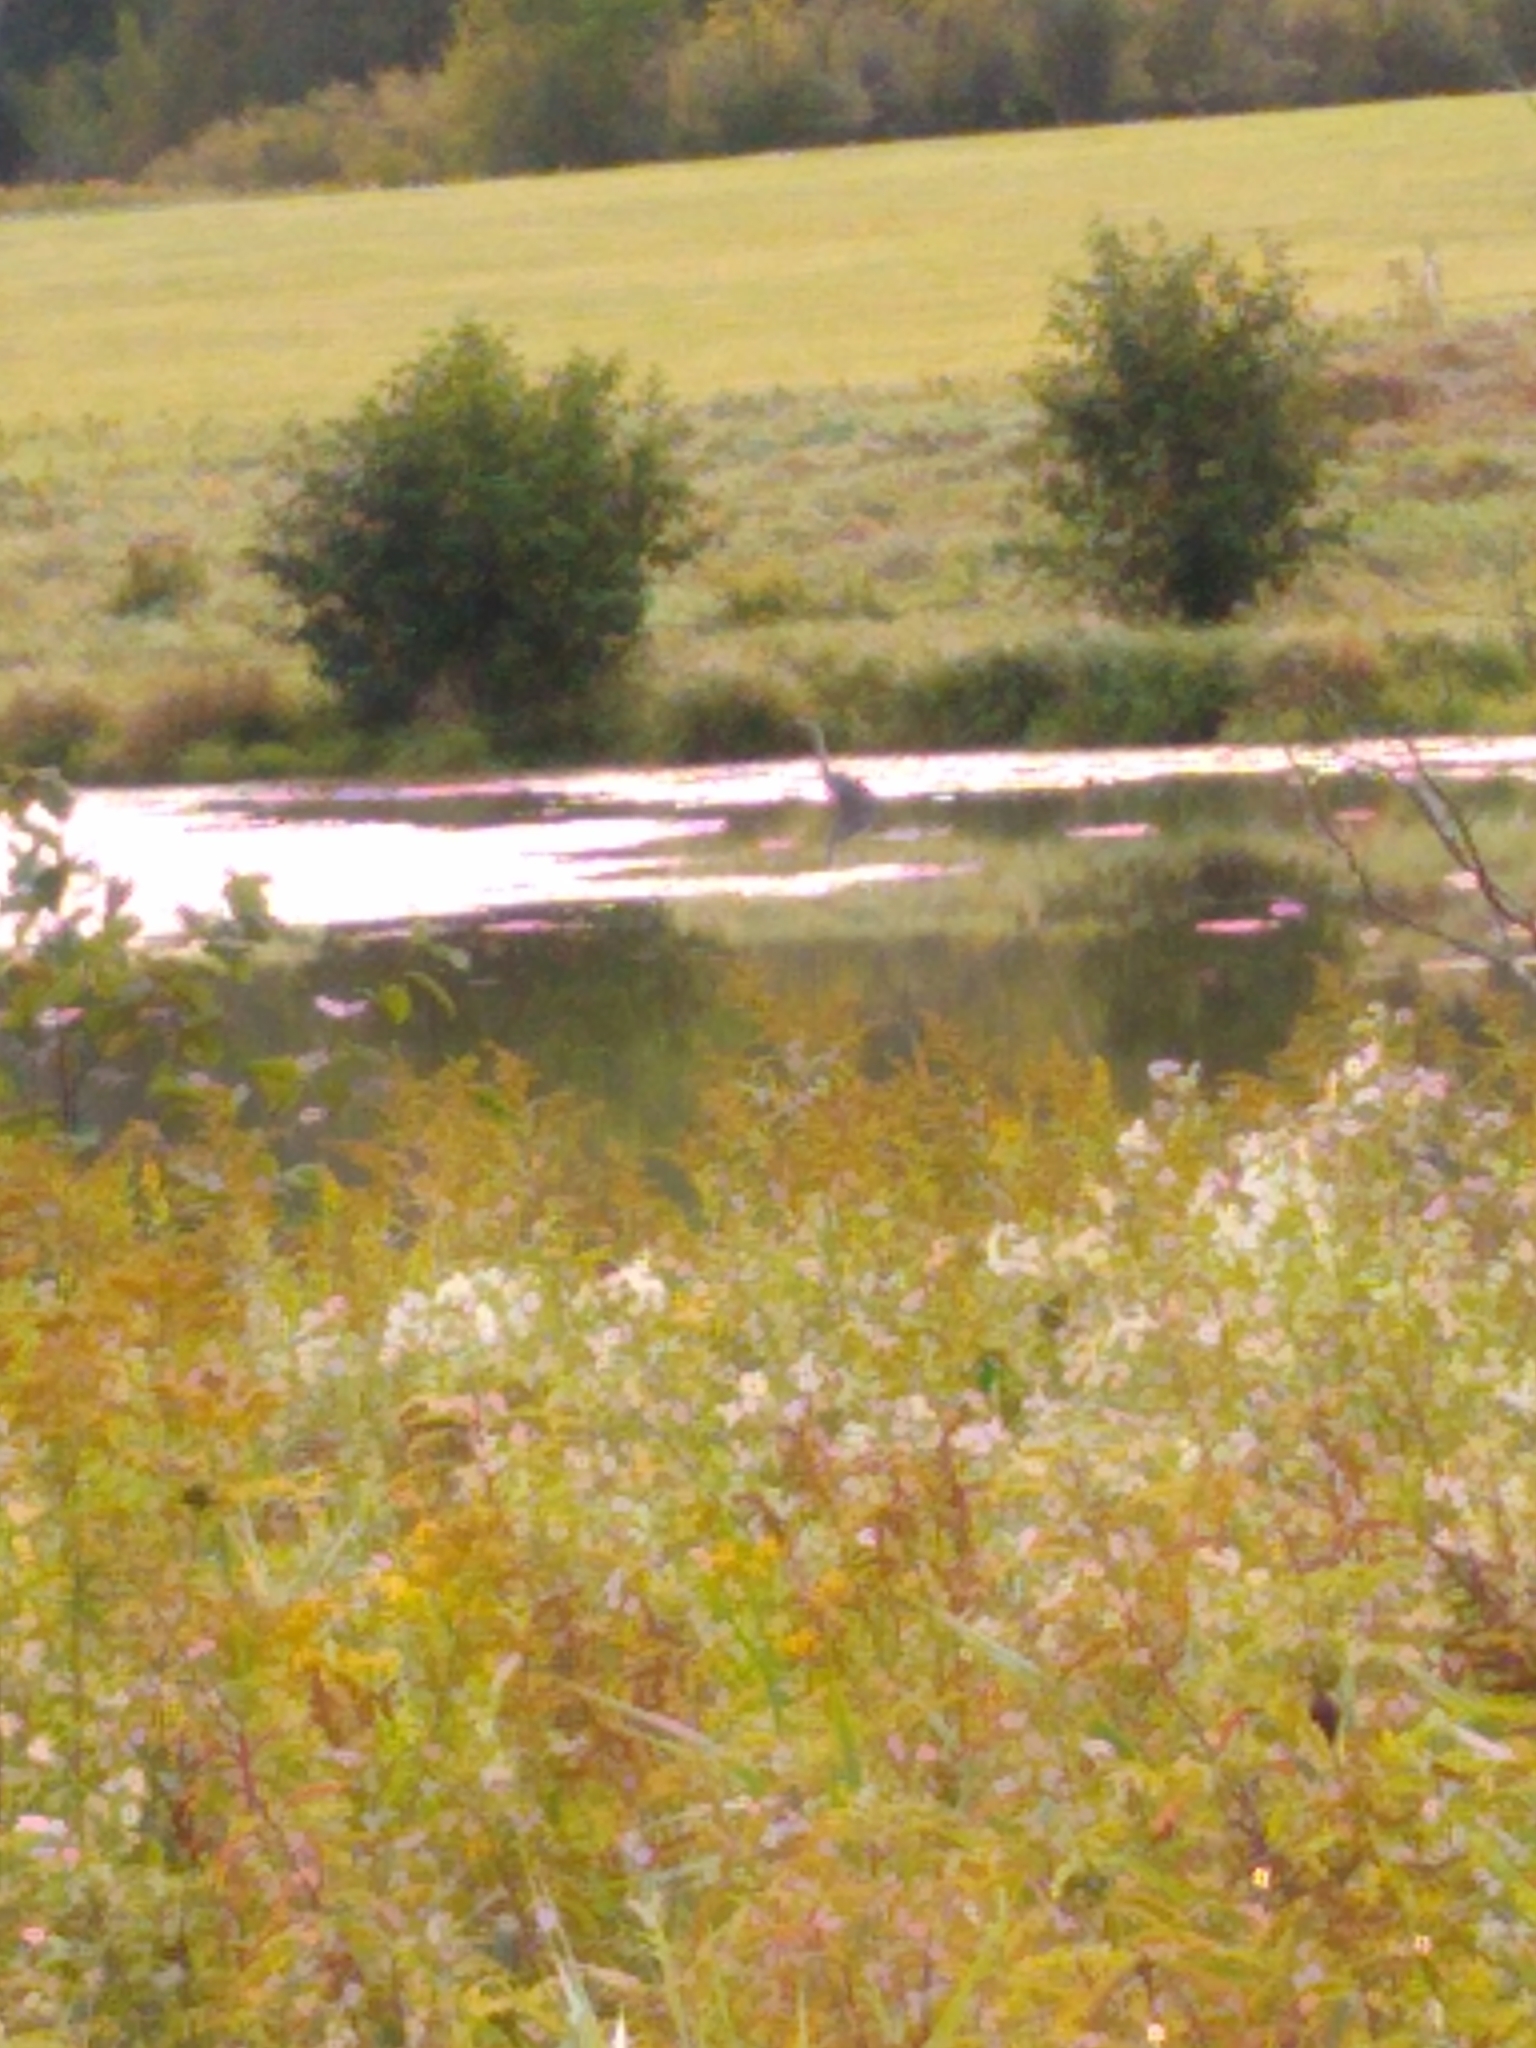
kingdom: Animalia
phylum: Chordata
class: Aves
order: Pelecaniformes
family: Ardeidae
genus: Ardea
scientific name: Ardea herodias
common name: Great blue heron
